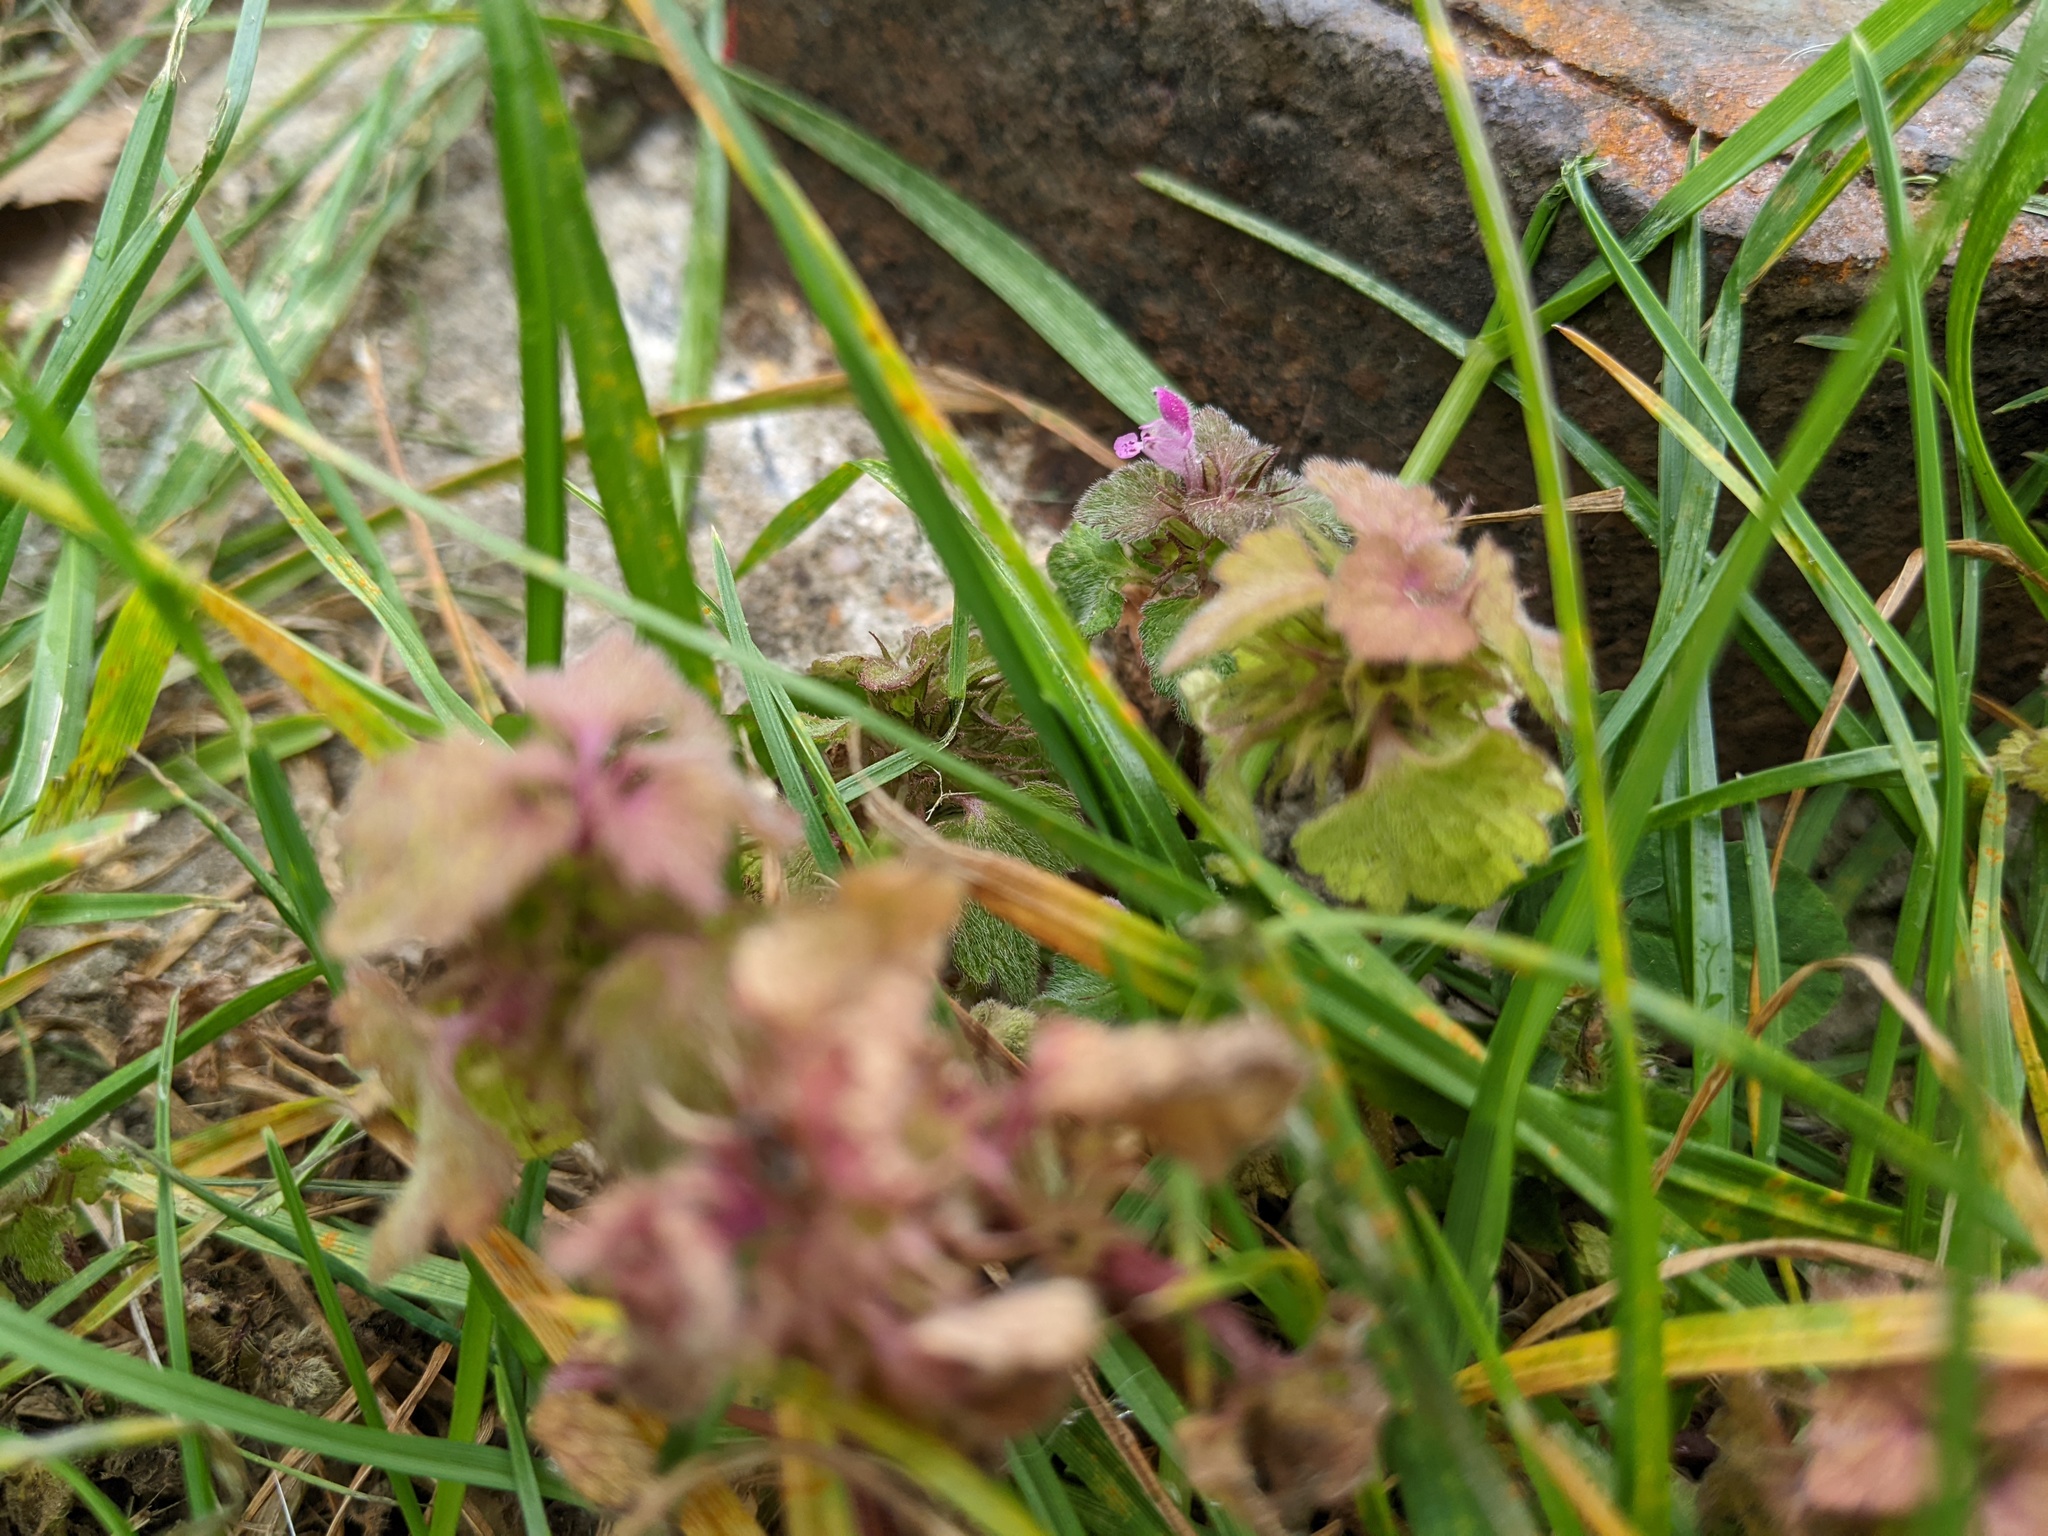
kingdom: Plantae
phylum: Tracheophyta
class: Magnoliopsida
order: Lamiales
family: Lamiaceae
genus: Lamium
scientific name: Lamium purpureum
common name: Red dead-nettle
